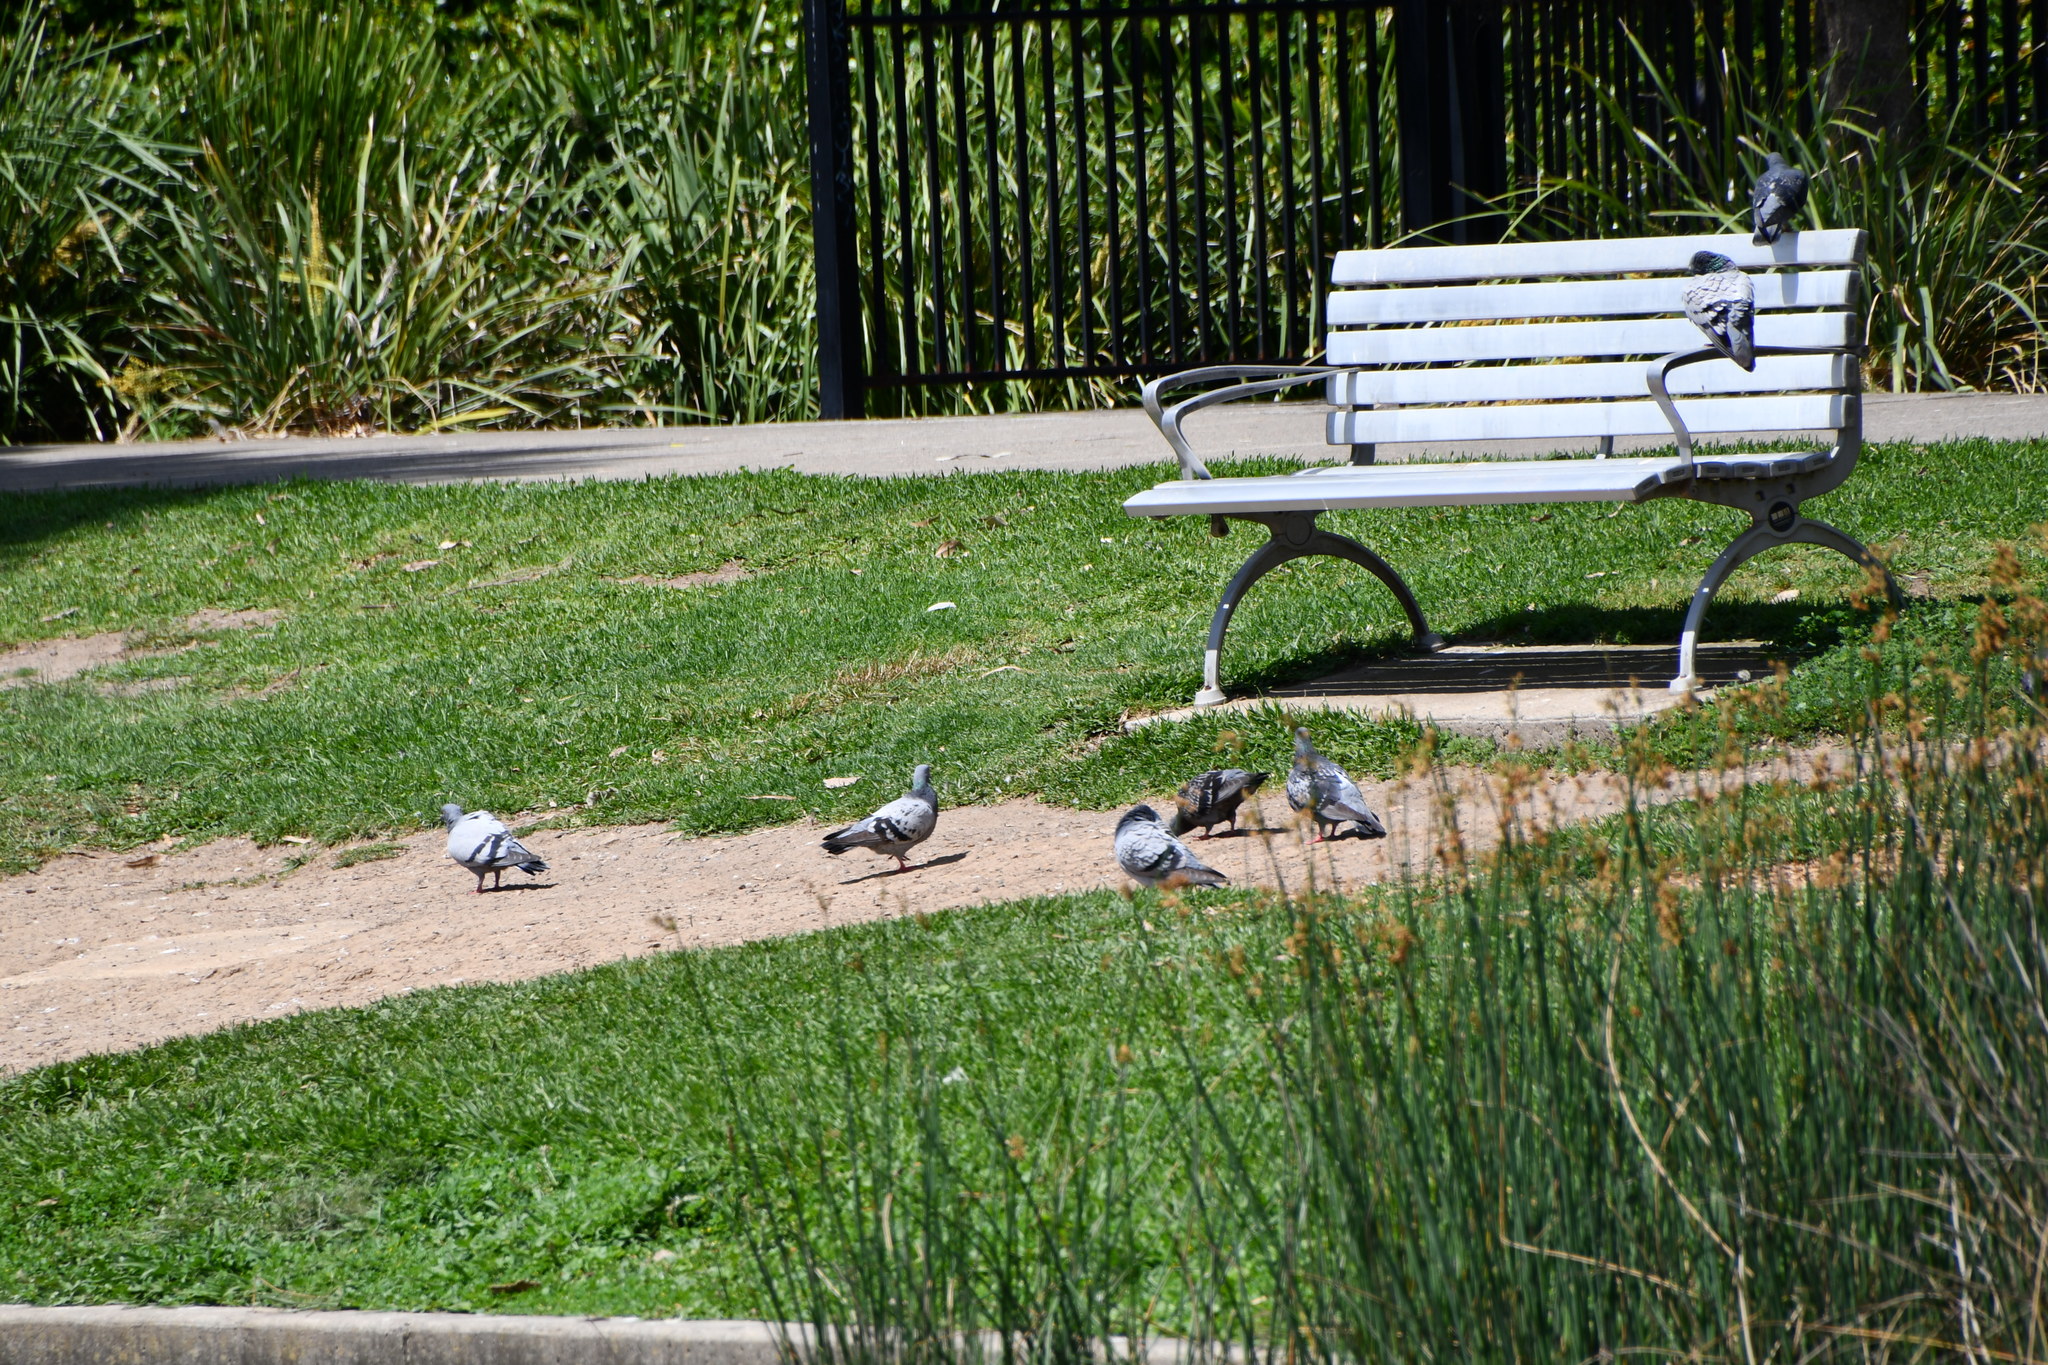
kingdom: Animalia
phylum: Chordata
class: Aves
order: Columbiformes
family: Columbidae
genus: Columba
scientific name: Columba livia
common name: Rock pigeon
